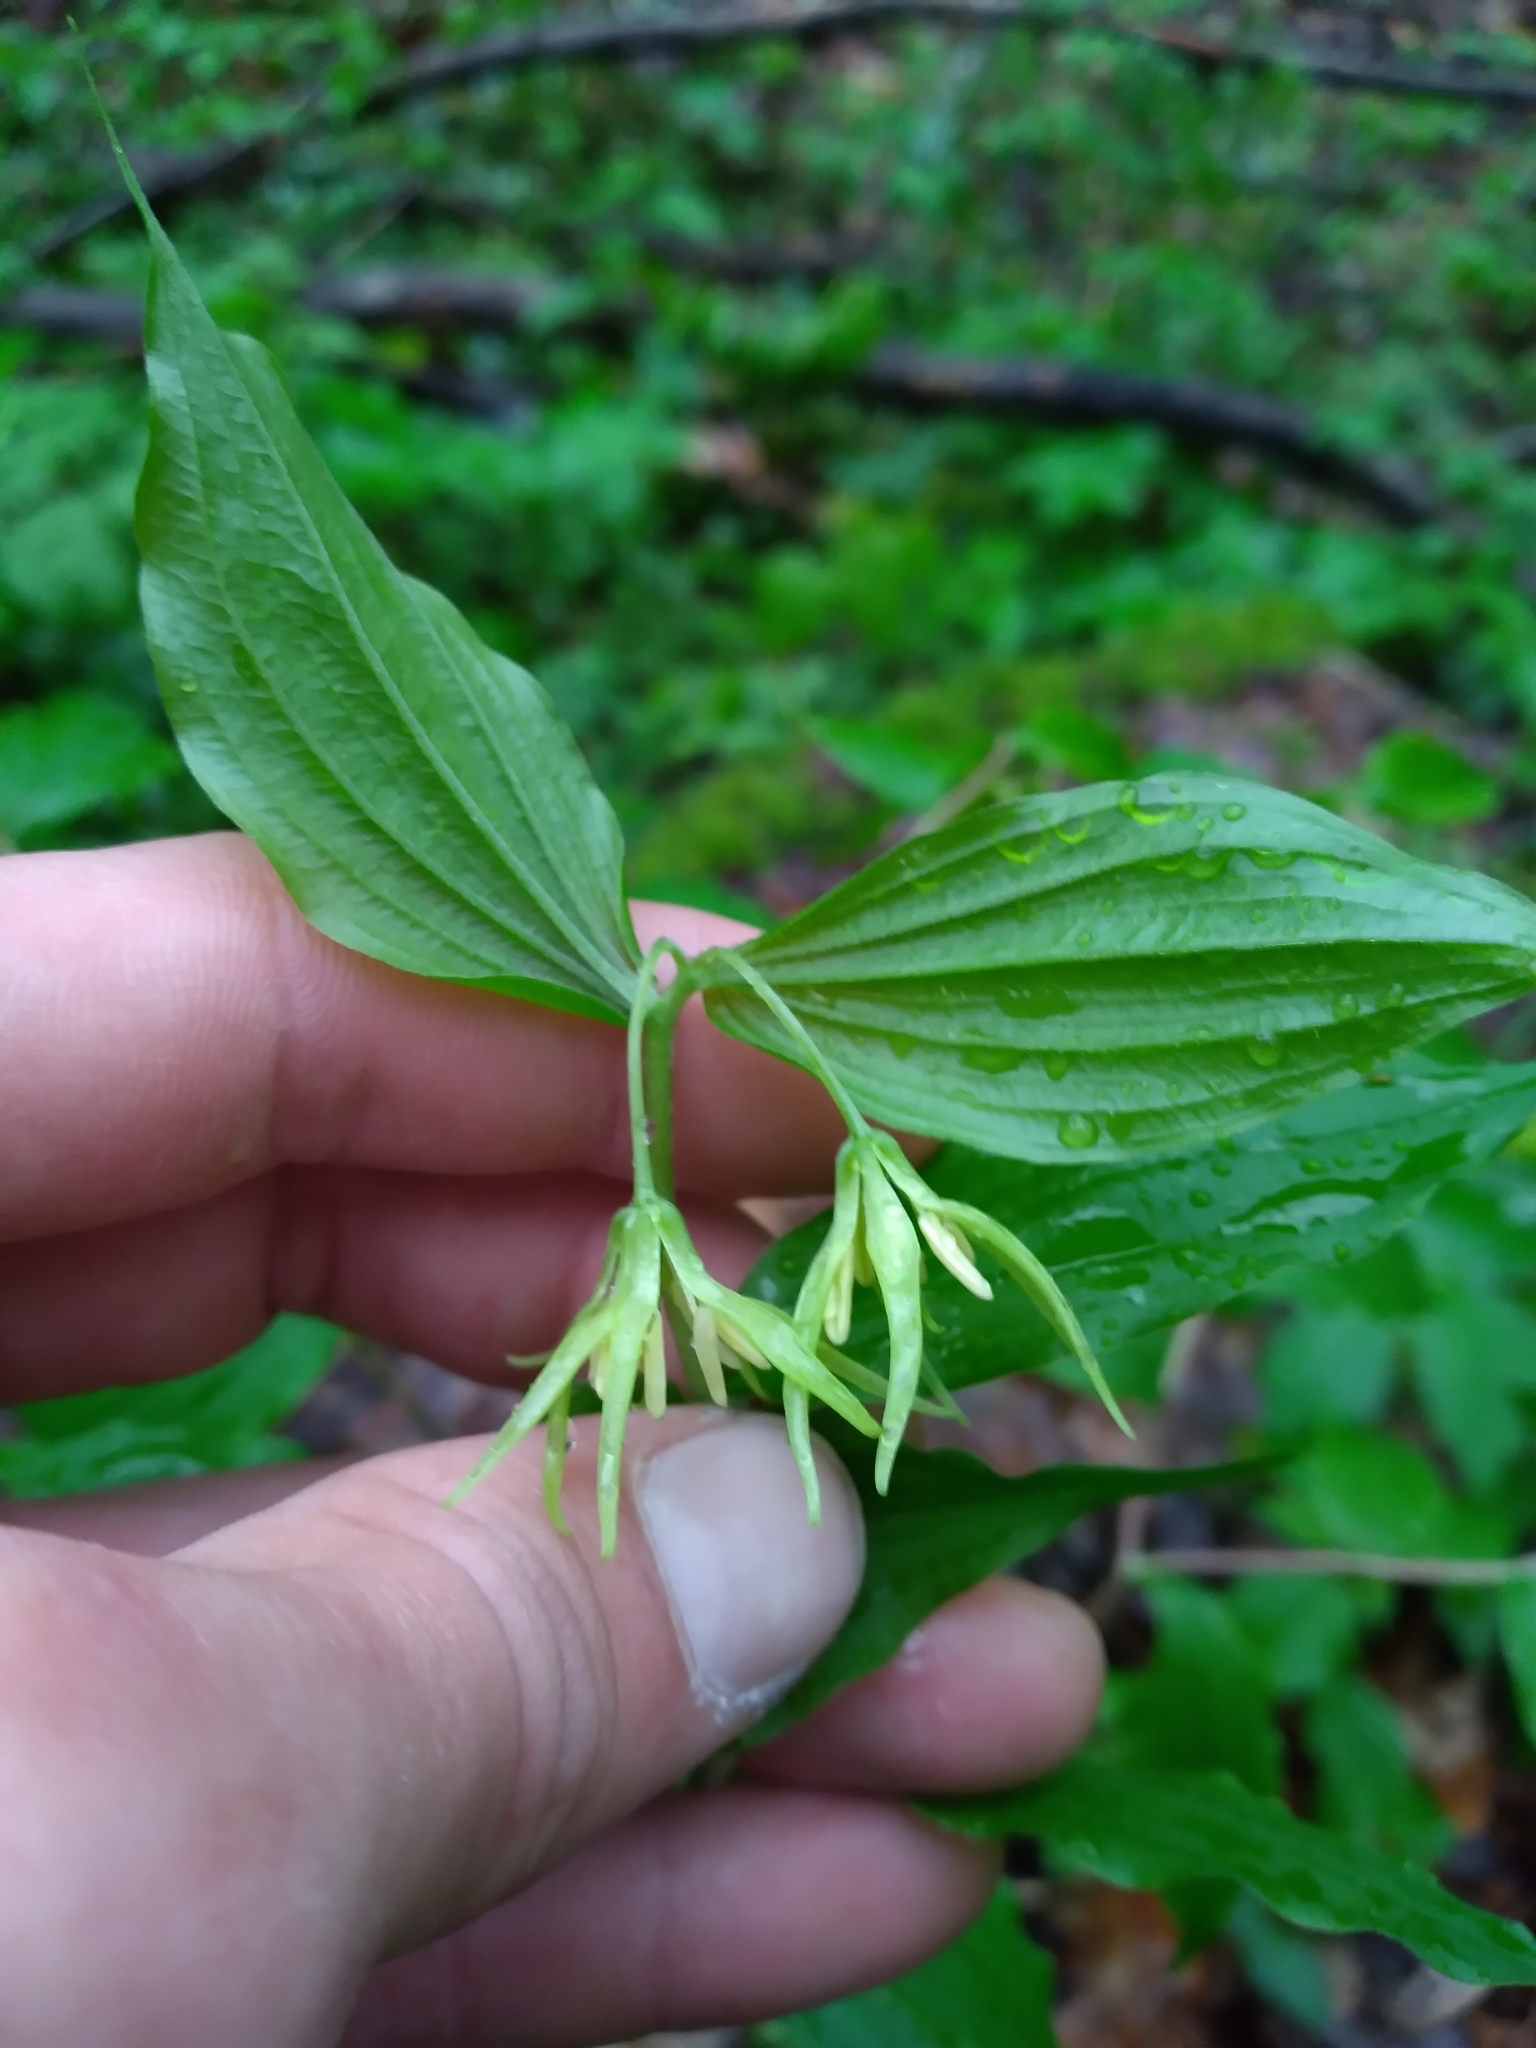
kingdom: Plantae
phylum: Tracheophyta
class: Liliopsida
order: Liliales
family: Liliaceae
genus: Prosartes
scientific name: Prosartes lanuginosa
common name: Hairy mandarin
